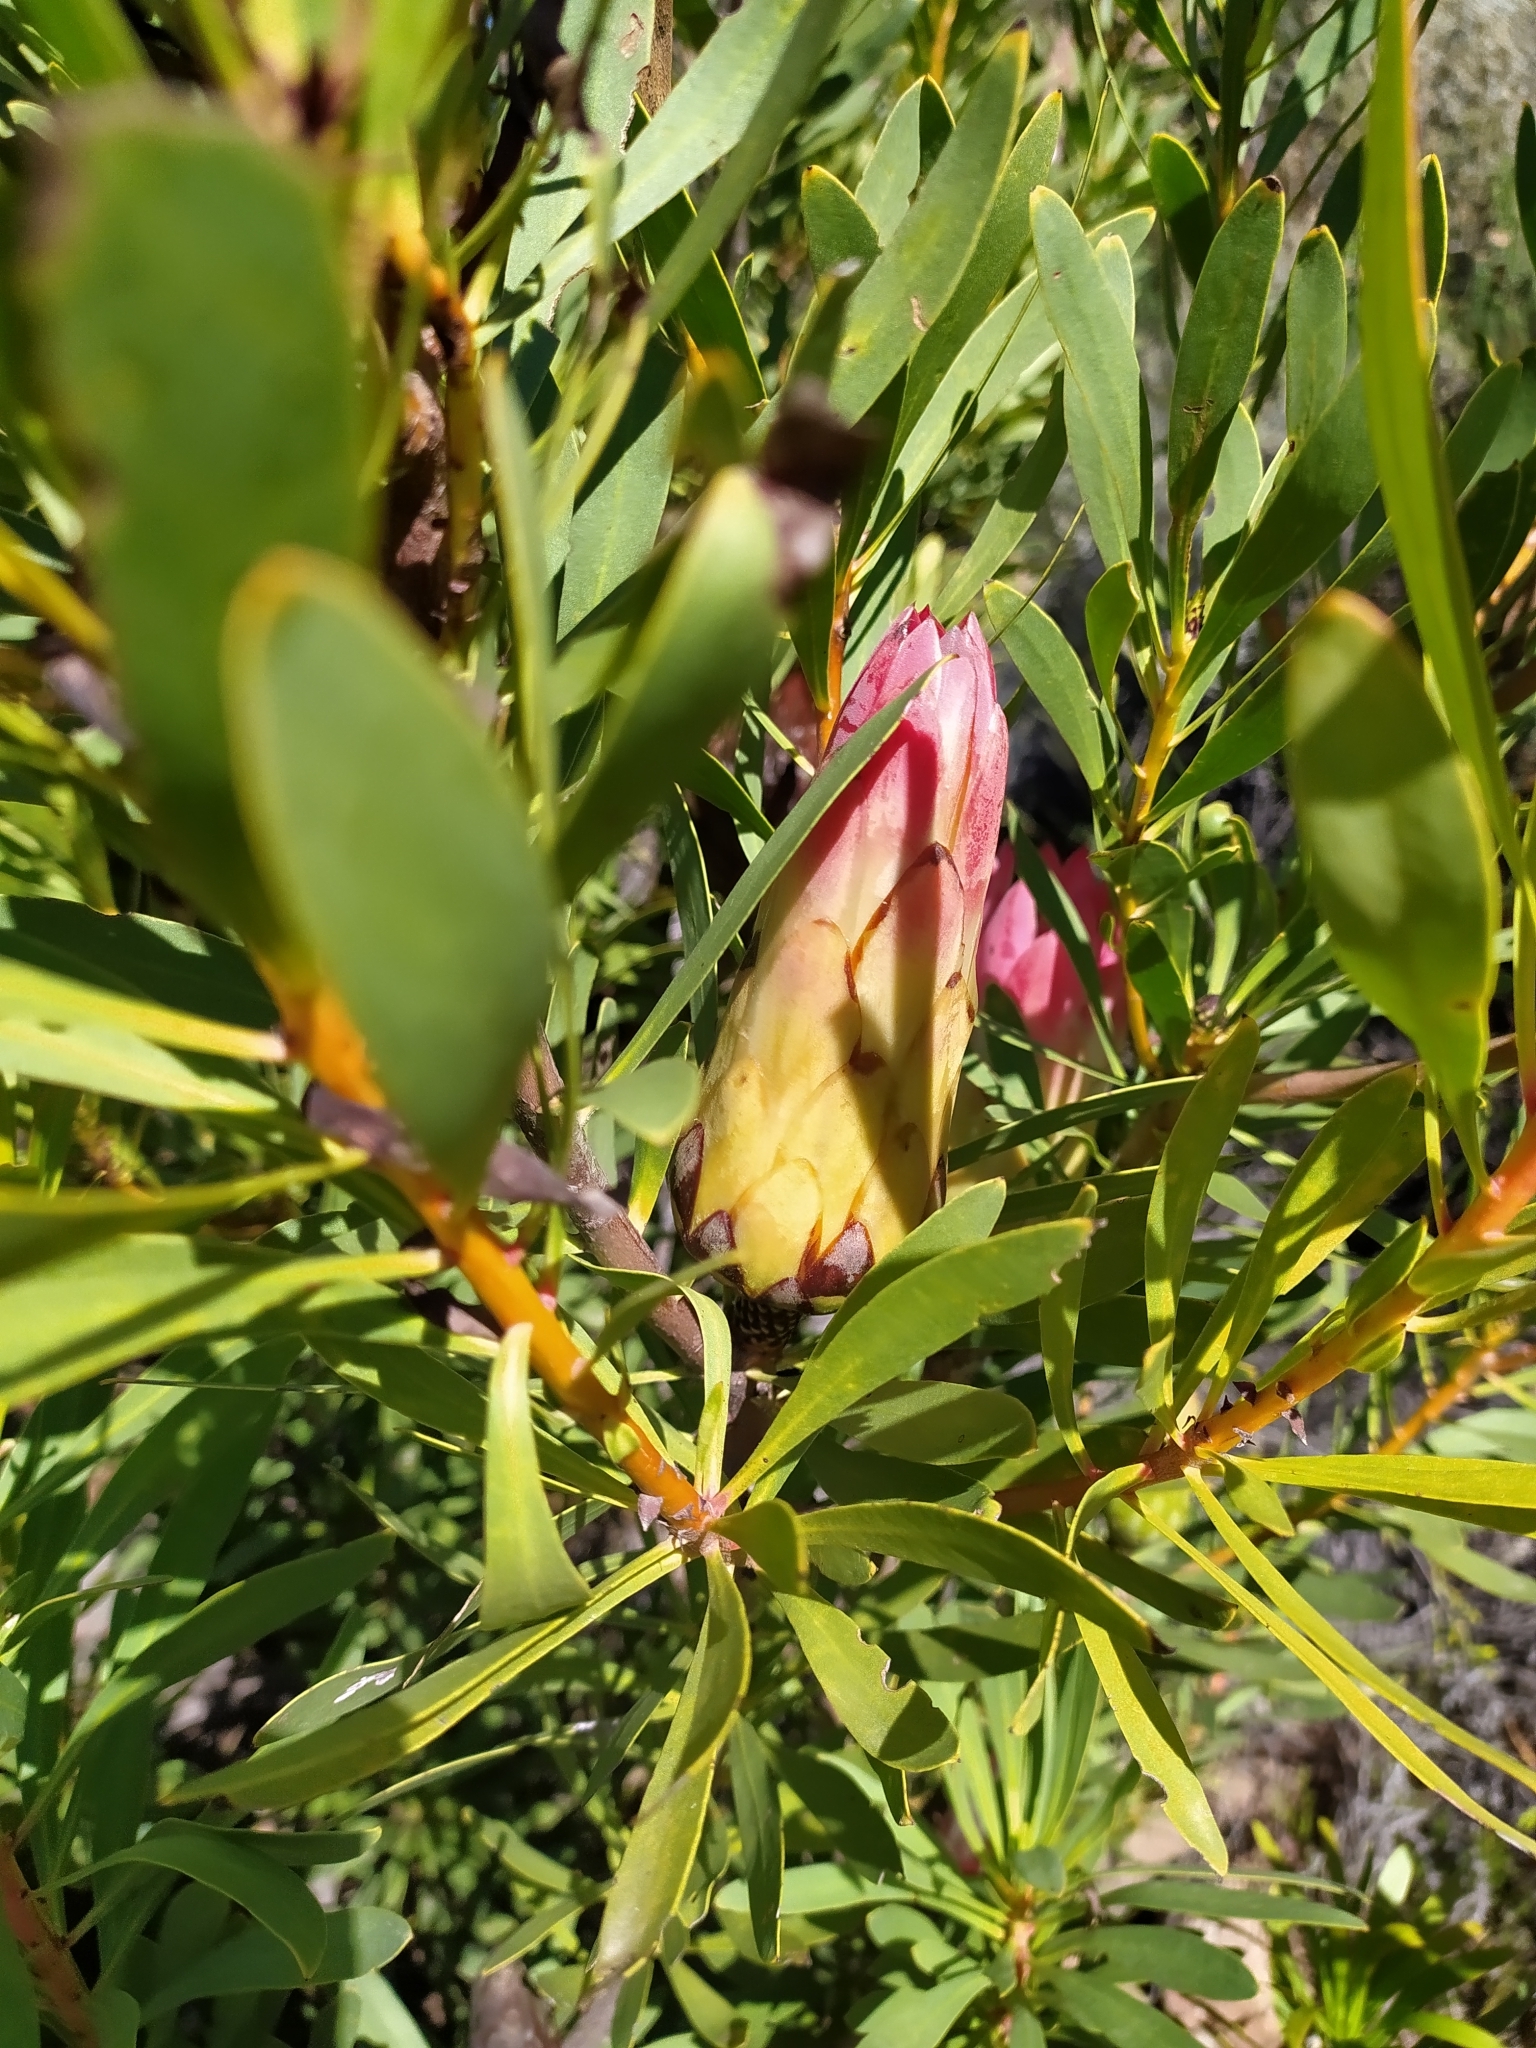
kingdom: Plantae
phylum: Tracheophyta
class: Magnoliopsida
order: Proteales
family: Proteaceae
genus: Protea
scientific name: Protea repens
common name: Sugarbush
